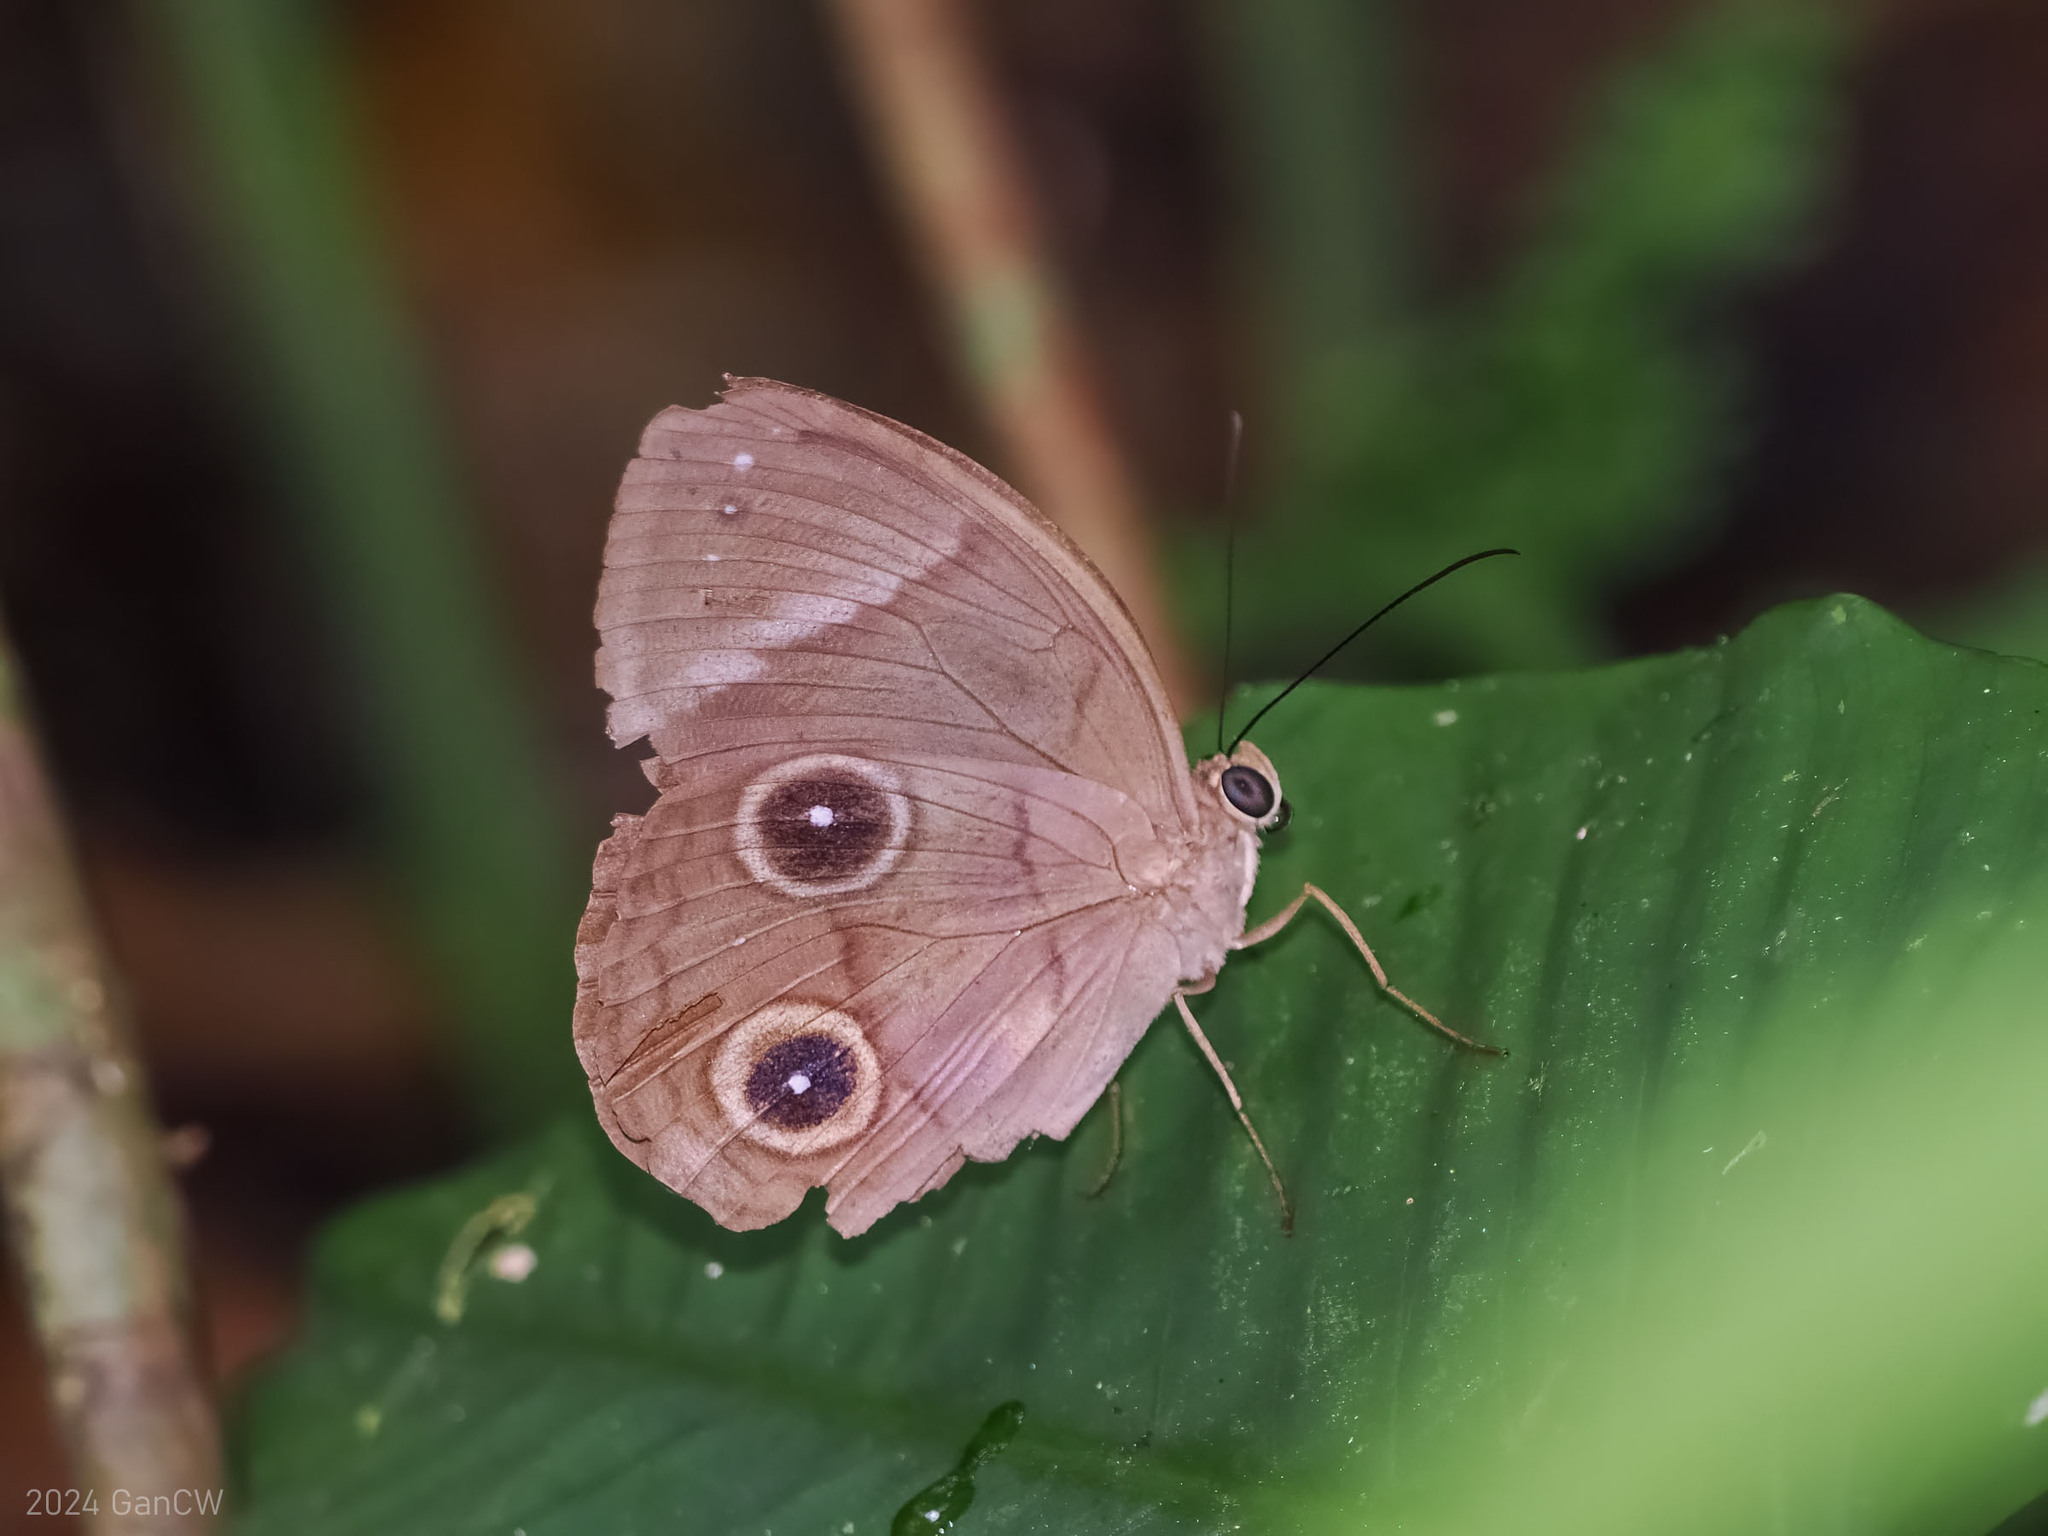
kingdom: Animalia
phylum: Arthropoda
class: Insecta
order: Lepidoptera
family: Nymphalidae
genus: Faunis
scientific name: Faunis sappho
